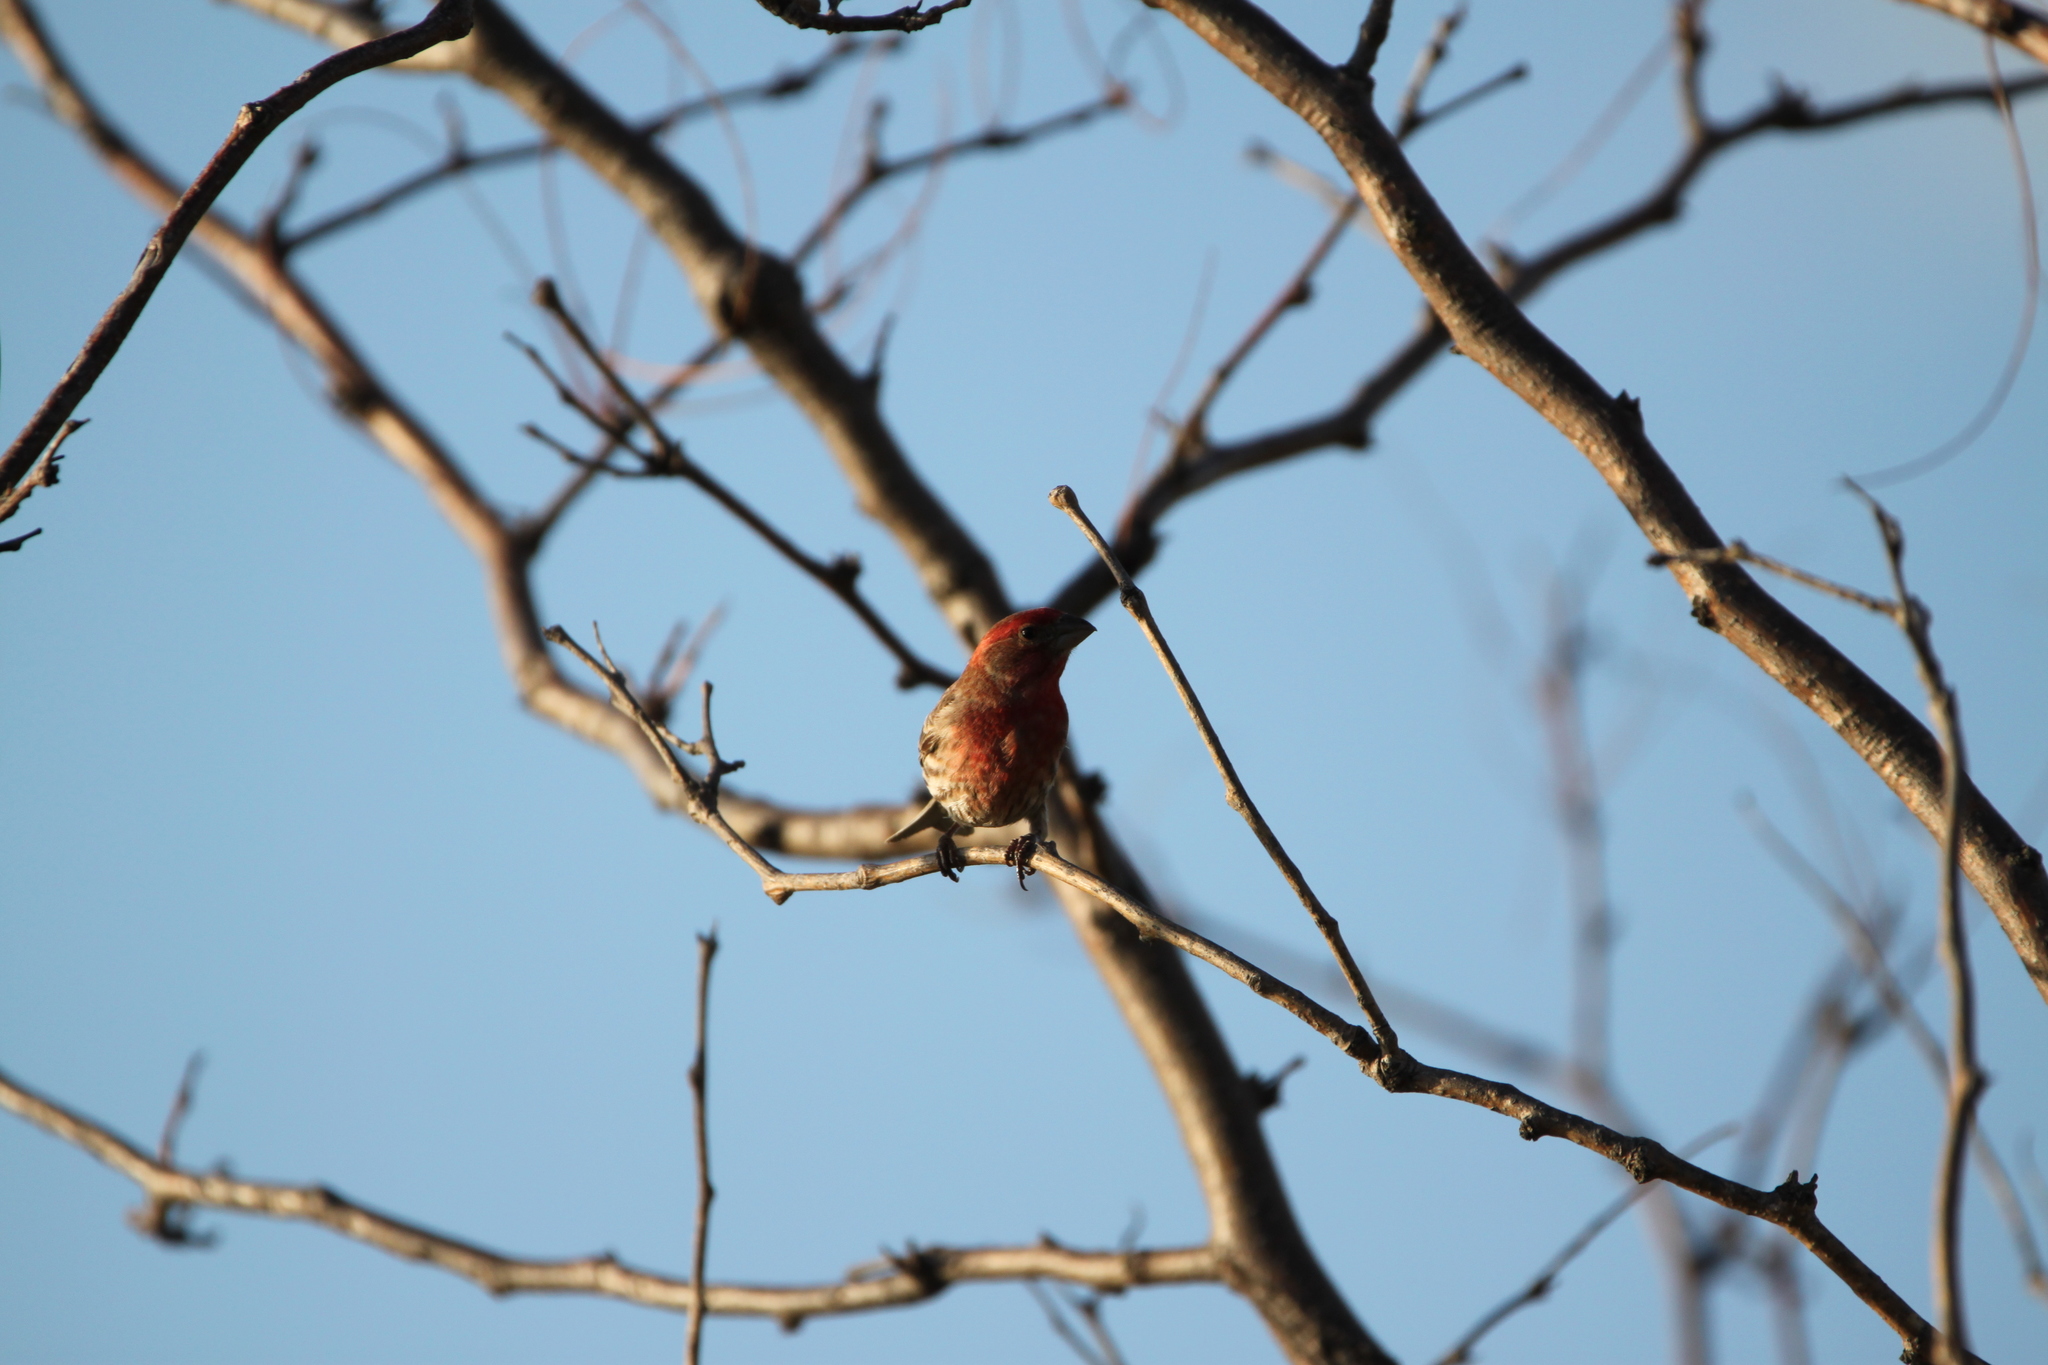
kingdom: Animalia
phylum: Chordata
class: Aves
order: Passeriformes
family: Fringillidae
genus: Haemorhous
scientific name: Haemorhous mexicanus
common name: House finch
